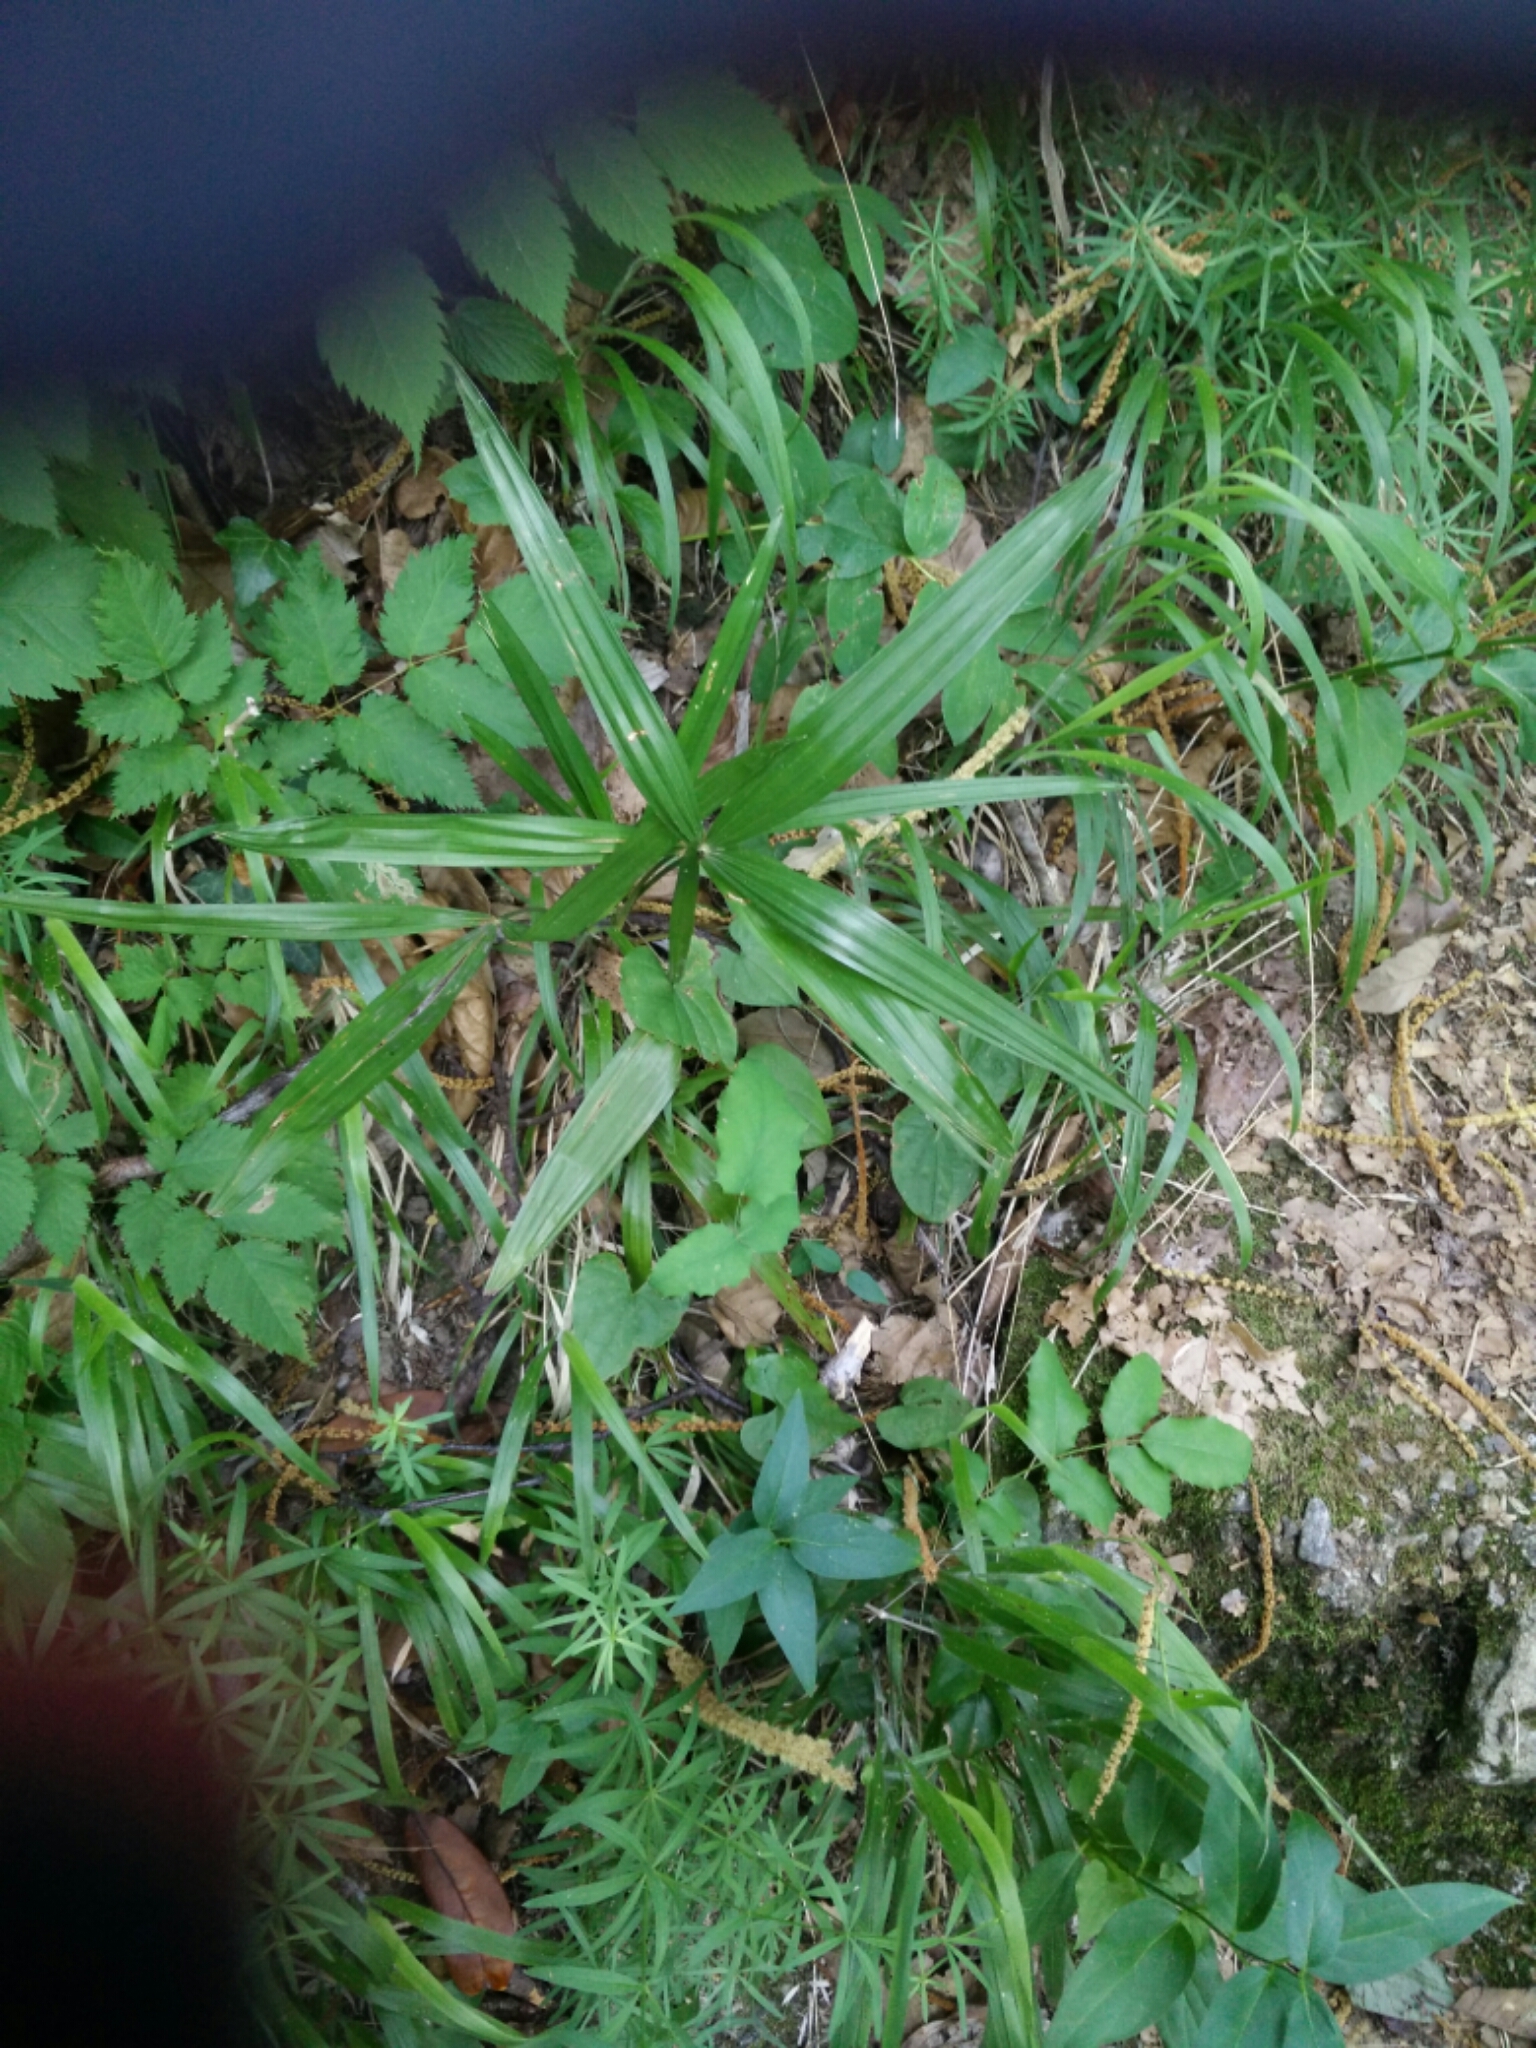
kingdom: Plantae
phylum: Tracheophyta
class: Liliopsida
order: Arecales
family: Arecaceae
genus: Trachycarpus
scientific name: Trachycarpus fortunei
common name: Chusan palm
